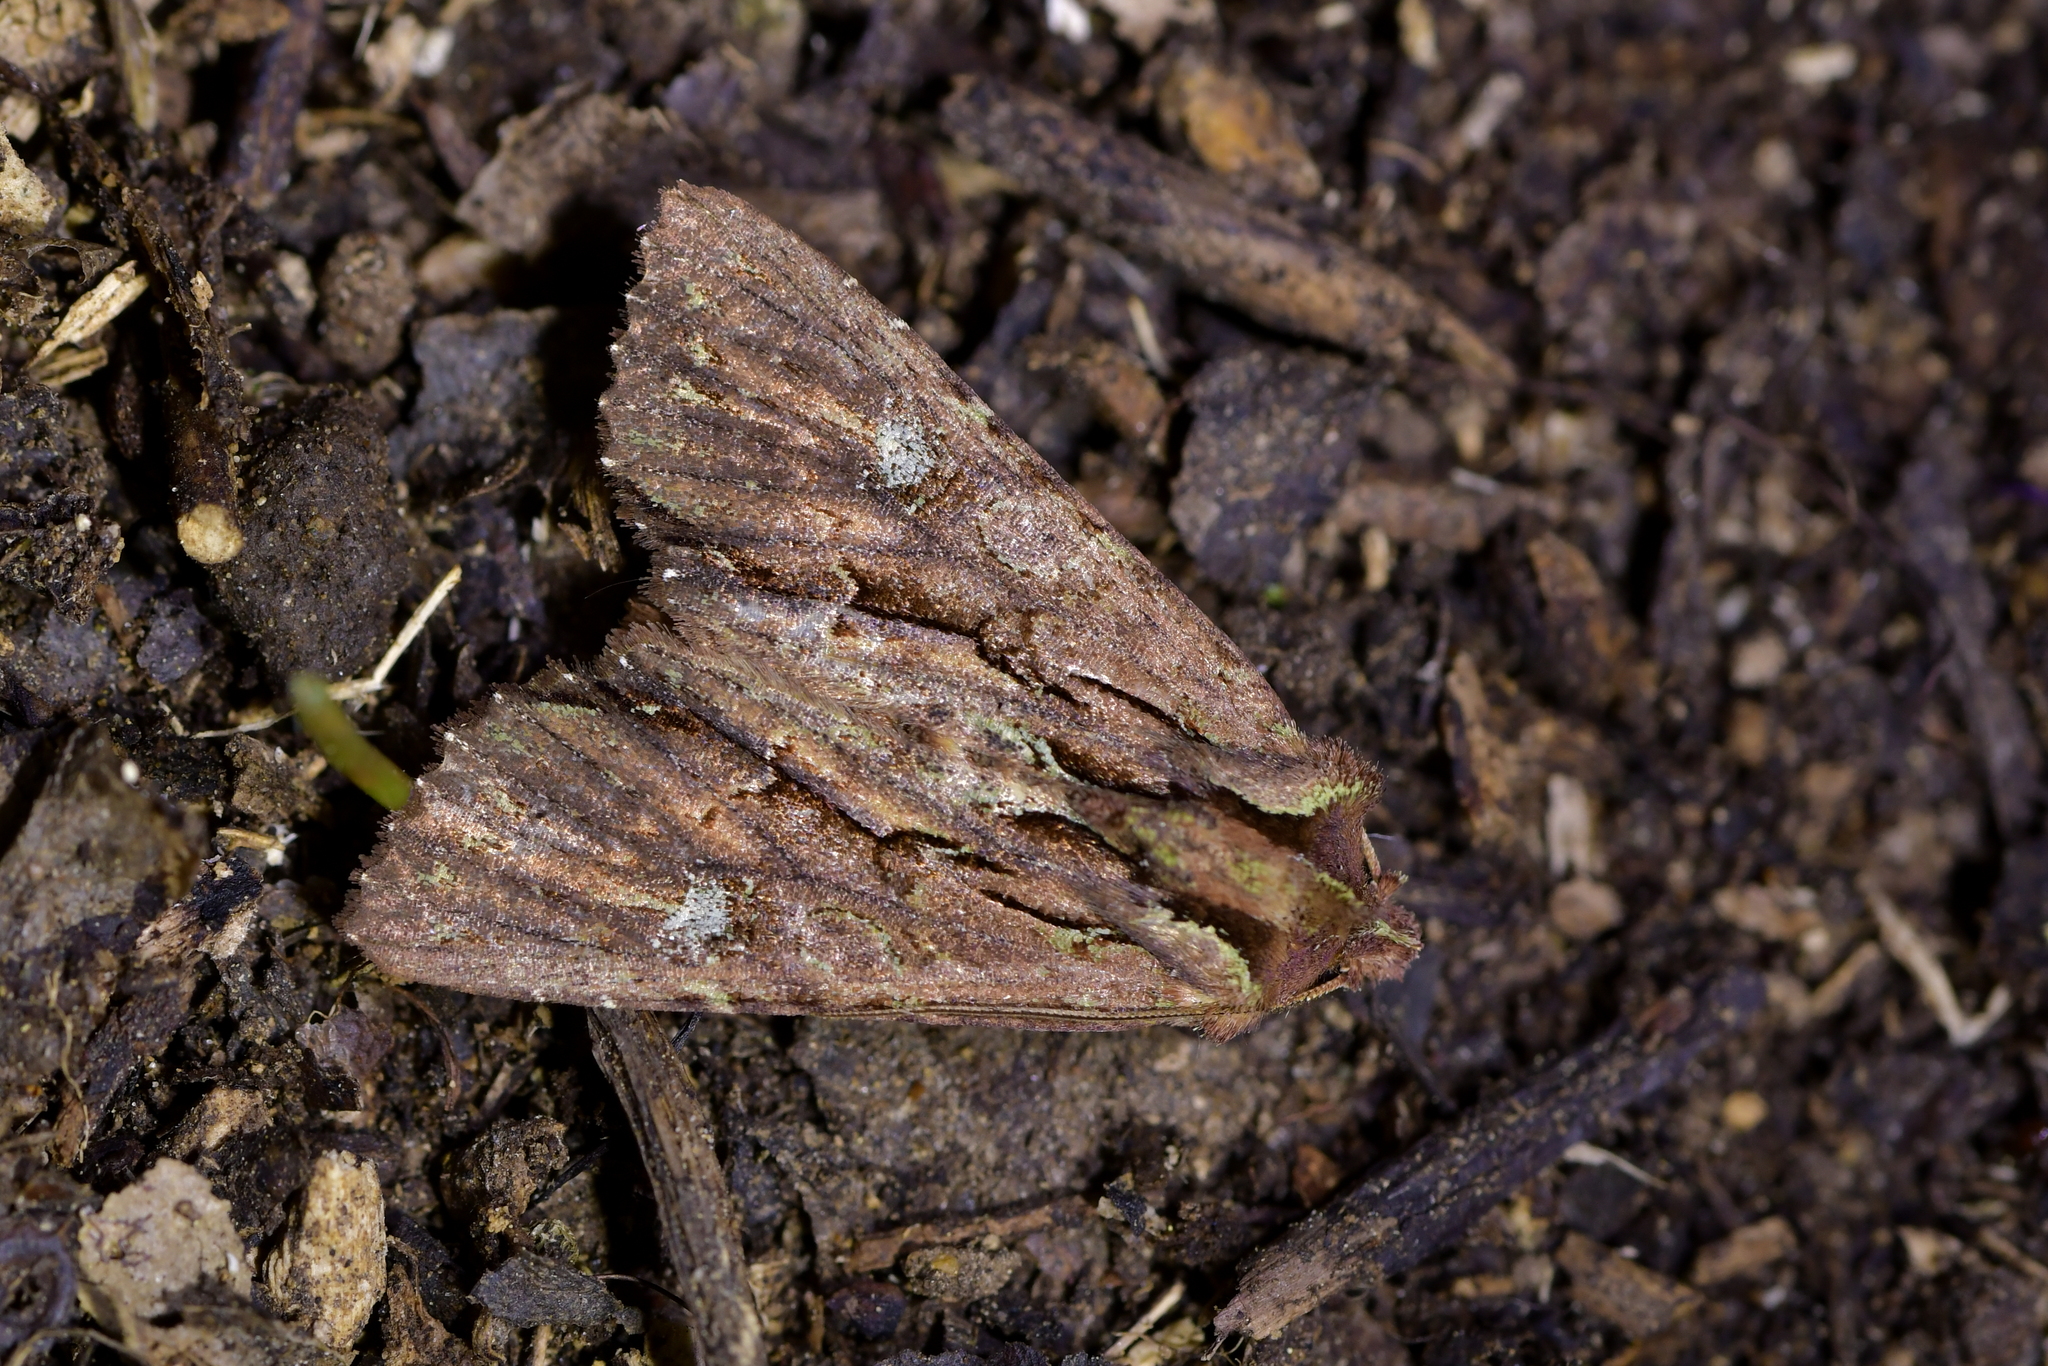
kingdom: Animalia
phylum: Arthropoda
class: Insecta
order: Lepidoptera
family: Noctuidae
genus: Meterana
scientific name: Meterana diatmeta
